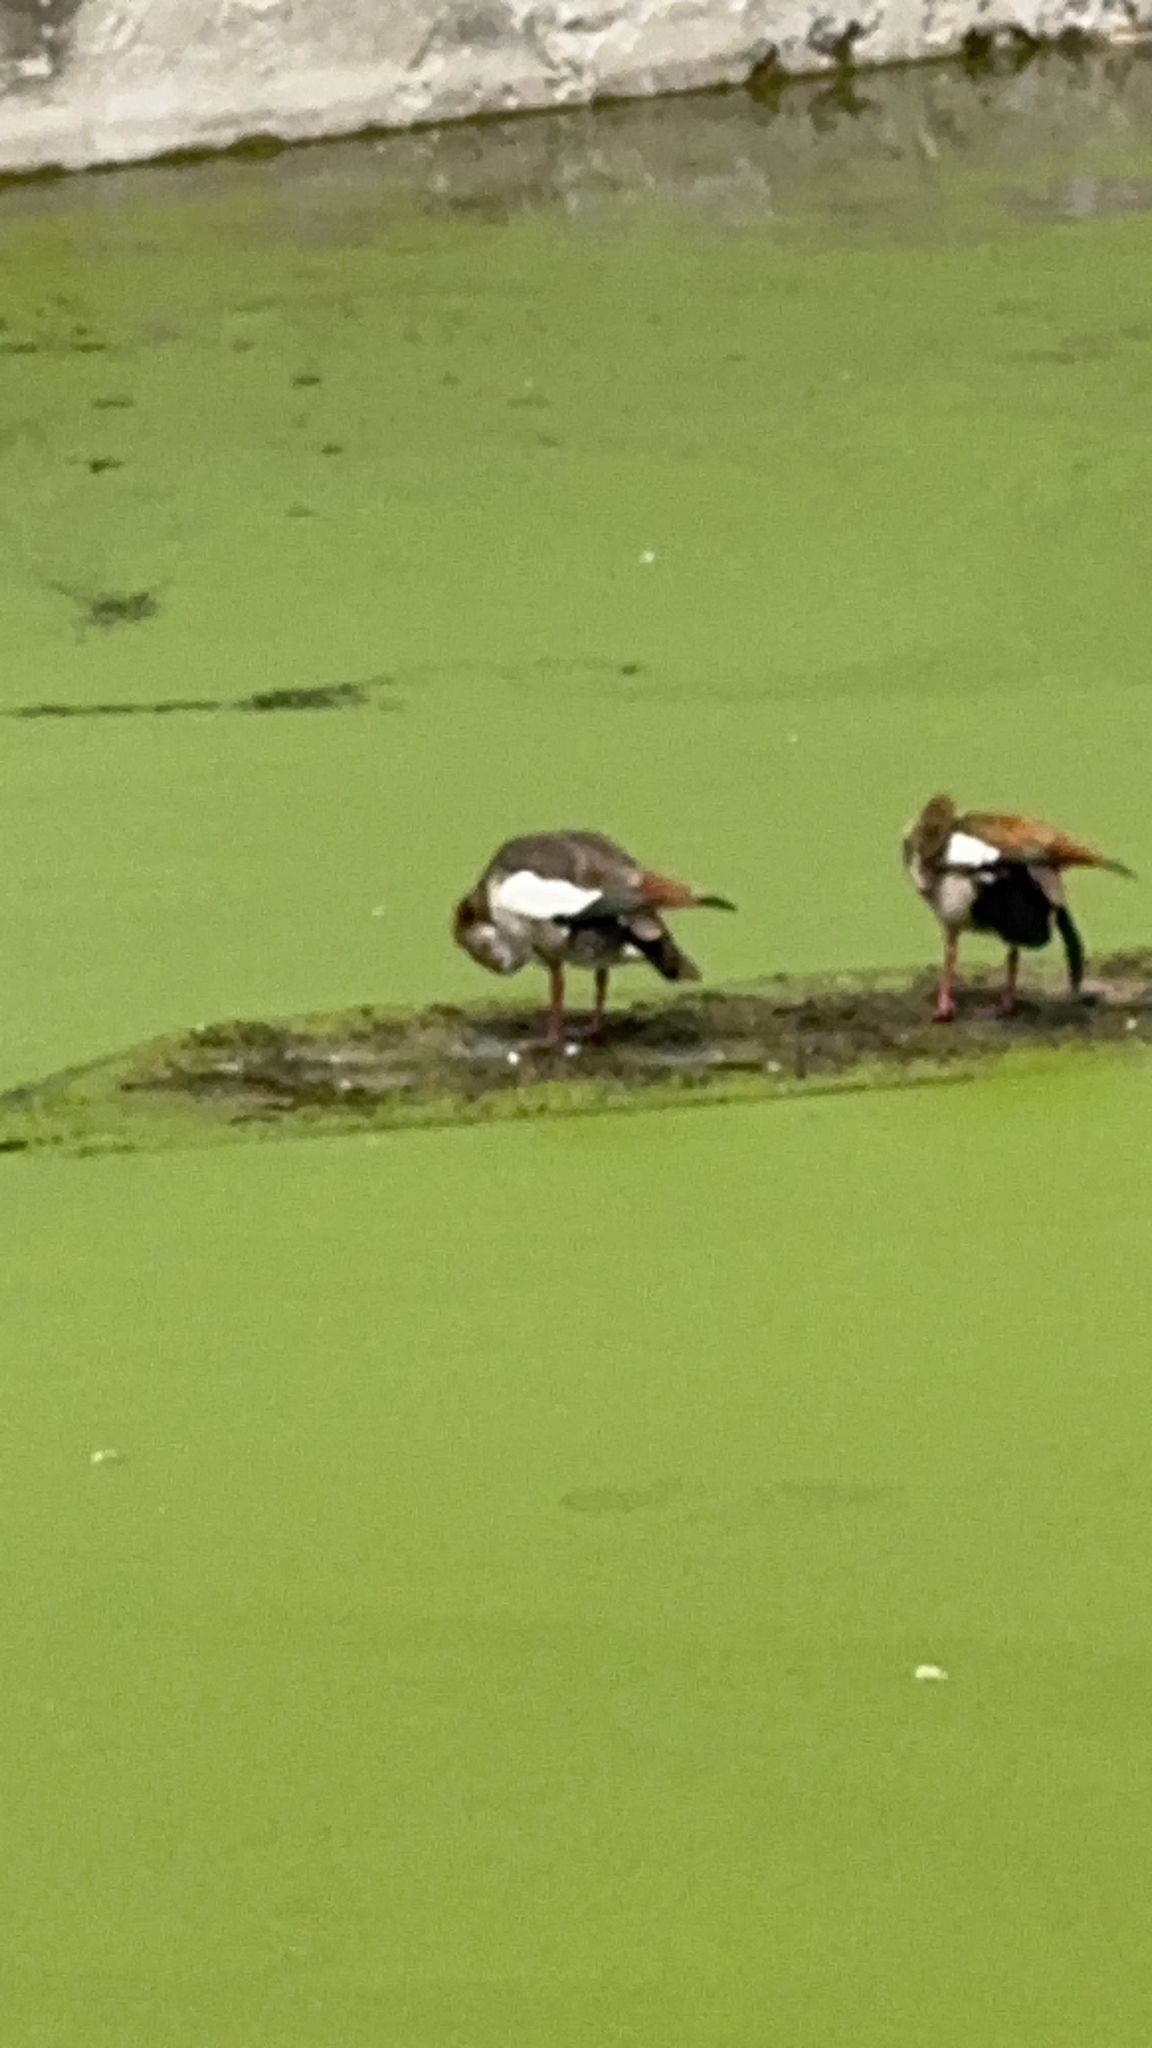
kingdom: Animalia
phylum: Chordata
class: Aves
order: Anseriformes
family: Anatidae
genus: Alopochen
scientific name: Alopochen aegyptiaca
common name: Egyptian goose
